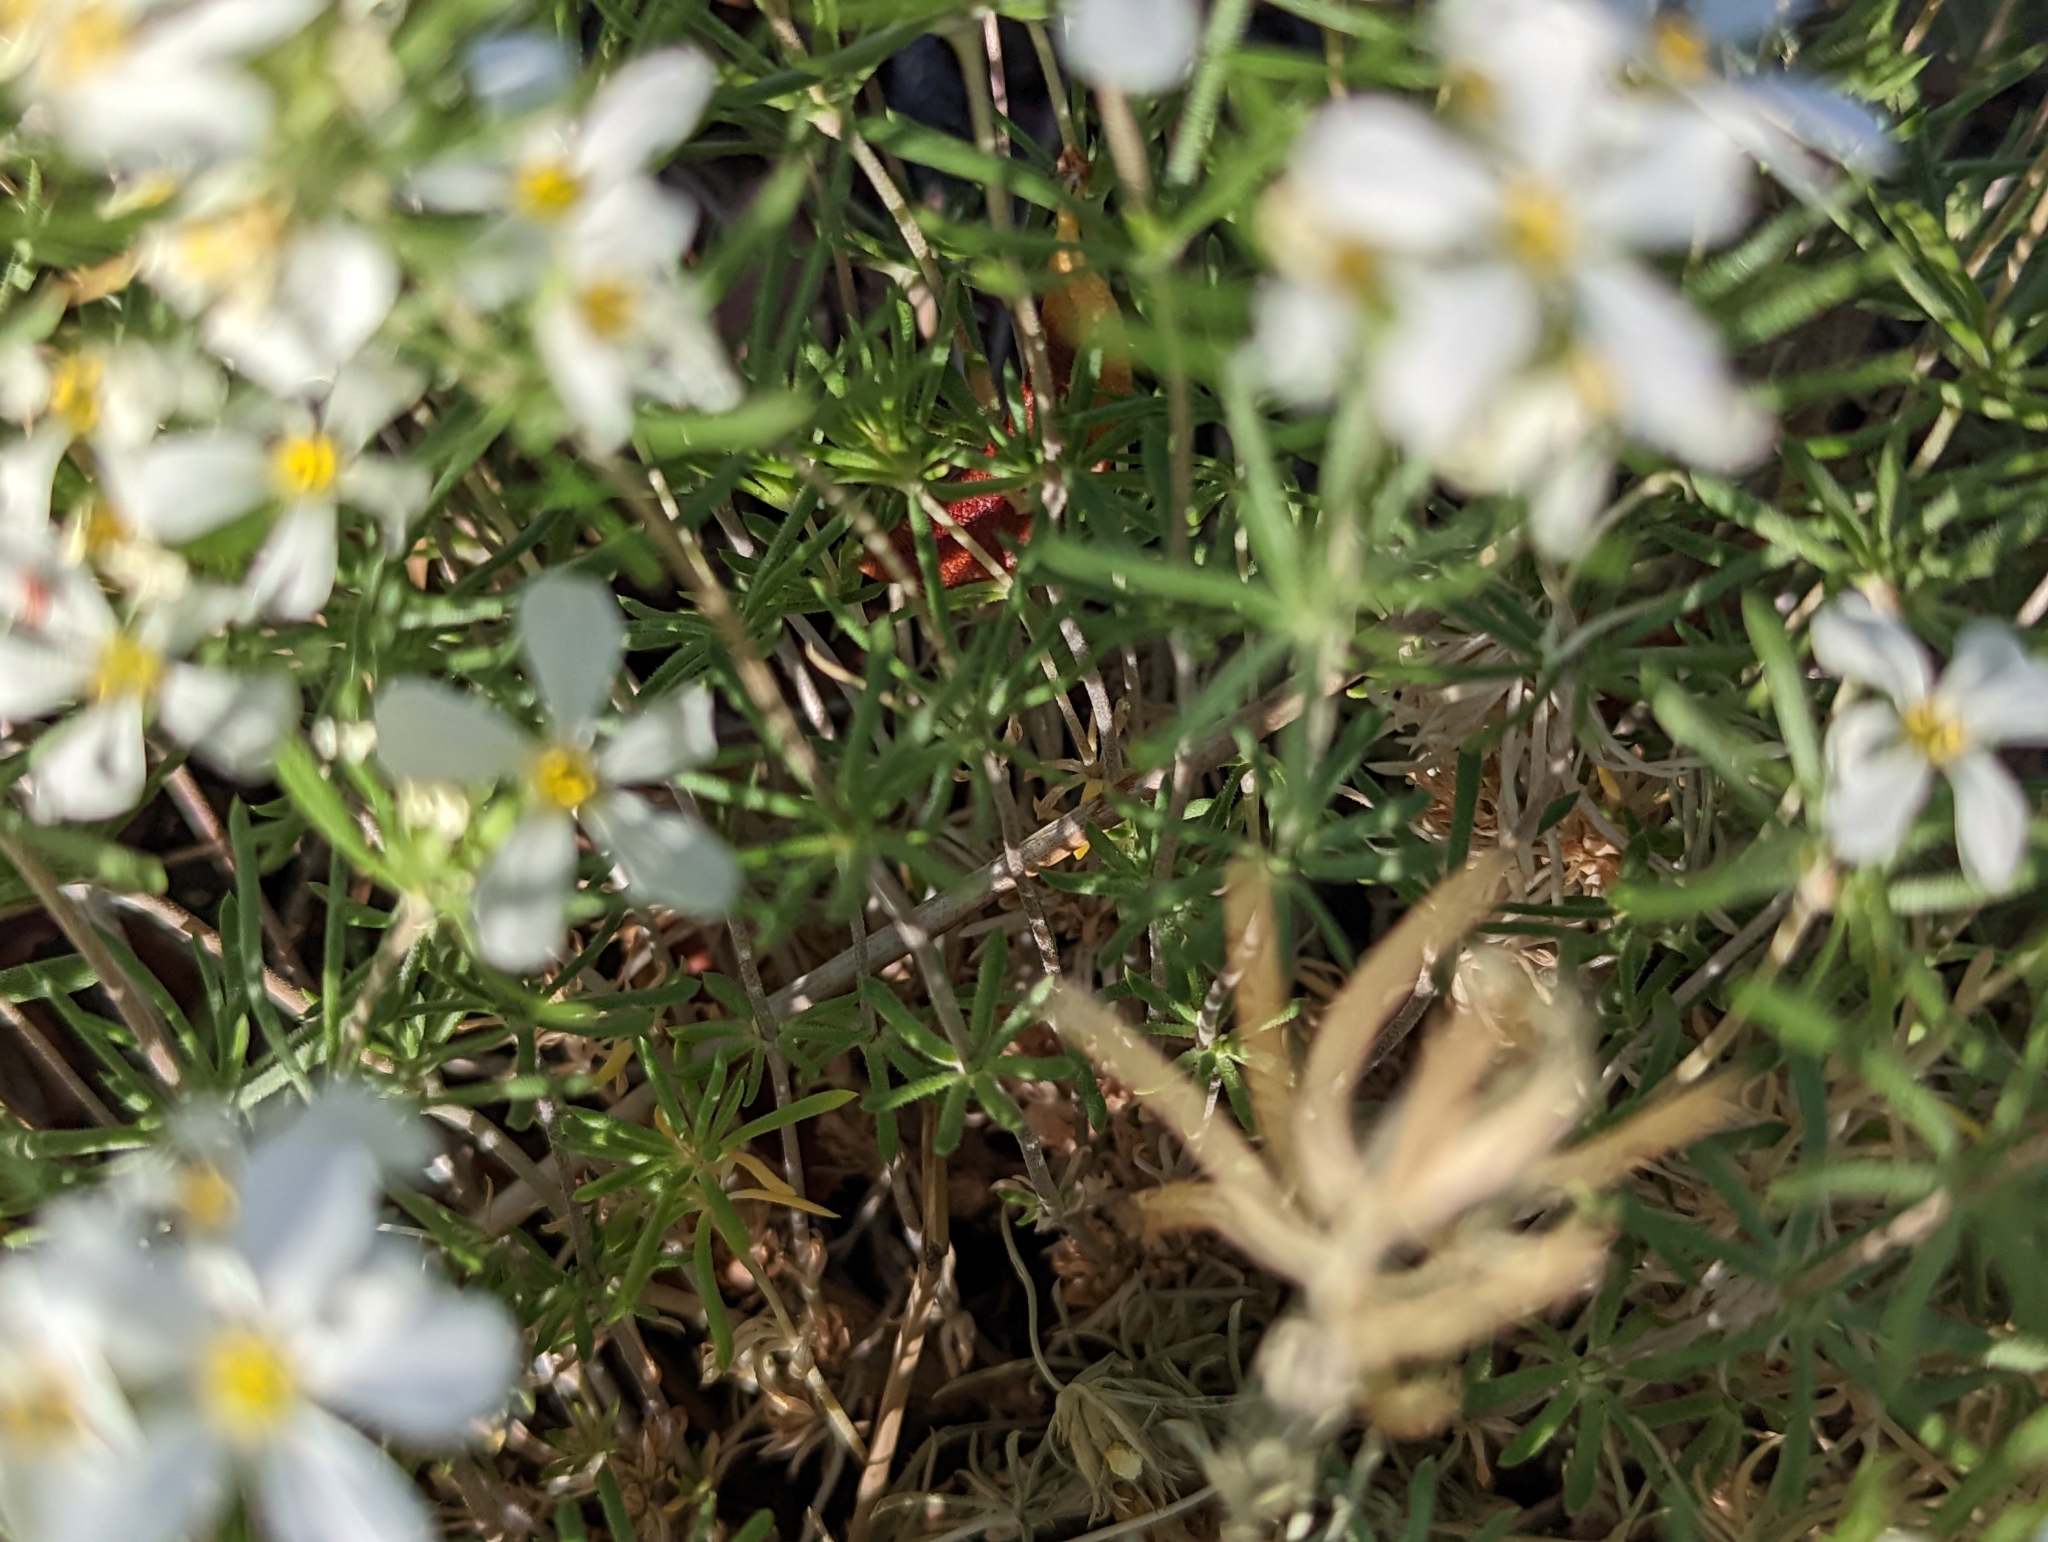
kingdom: Plantae
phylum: Tracheophyta
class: Magnoliopsida
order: Ericales
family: Polemoniaceae
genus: Leptosiphon
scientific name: Leptosiphon nuttallii
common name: Nuttall's linanthus
